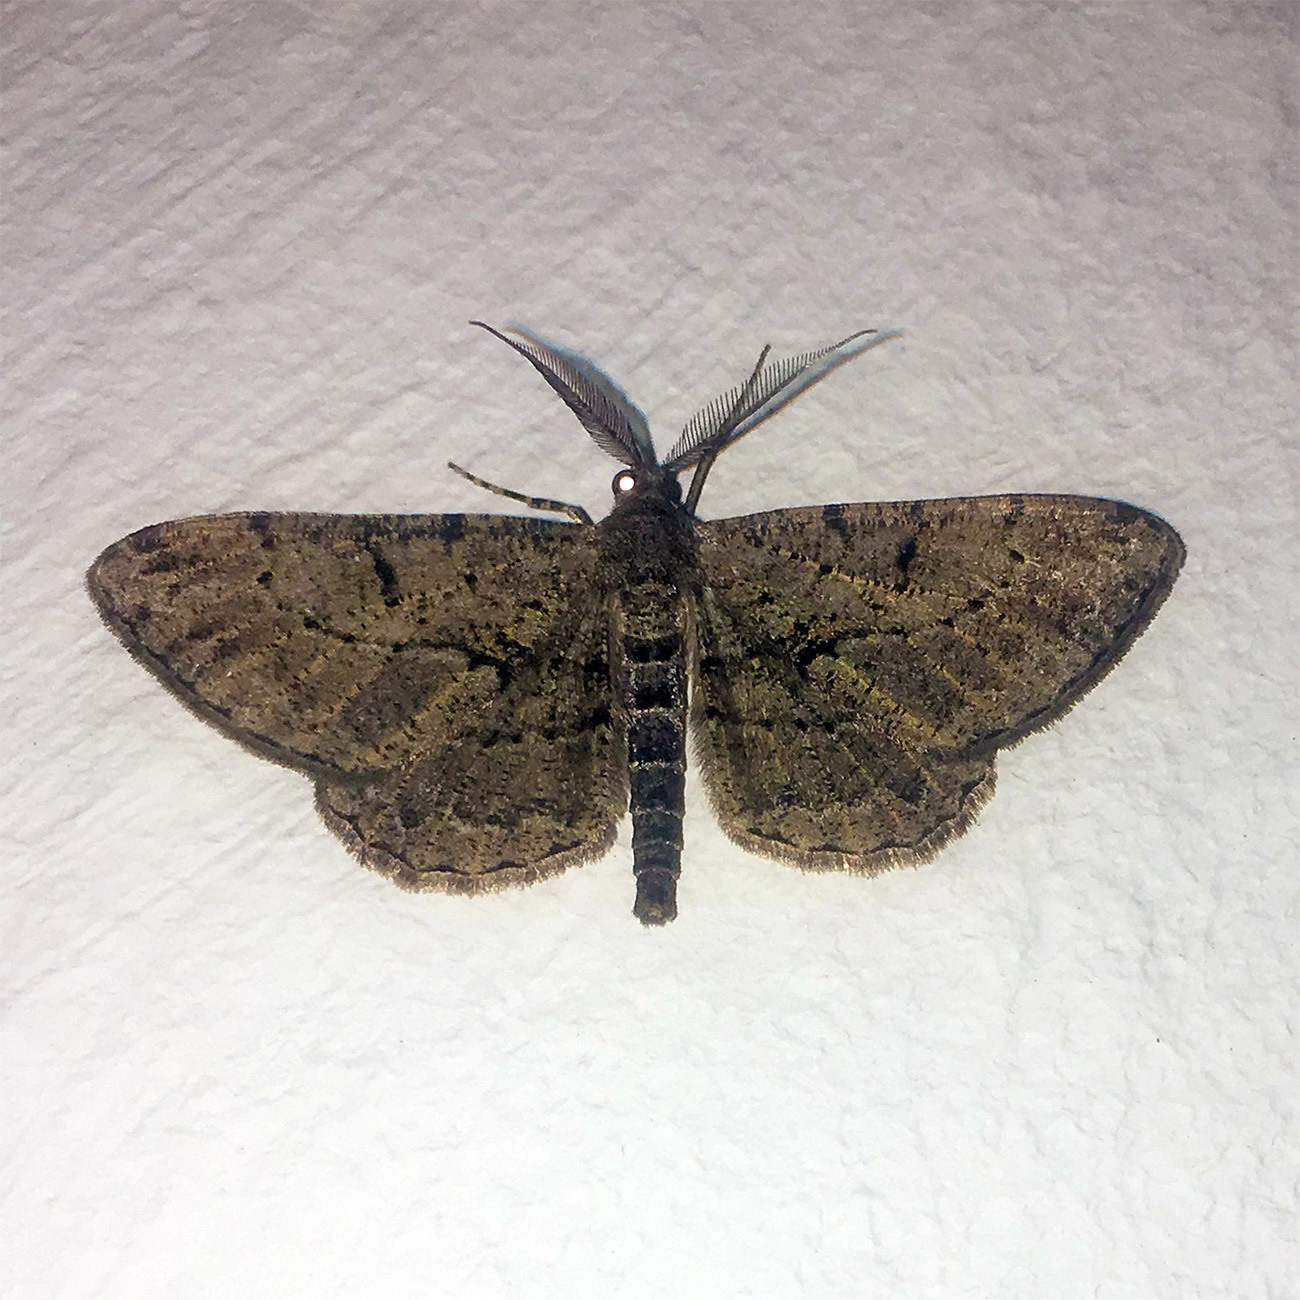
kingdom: Animalia
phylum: Arthropoda
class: Insecta
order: Lepidoptera
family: Geometridae
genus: Peribatodes
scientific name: Peribatodes rhomboidaria
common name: Willow beauty
